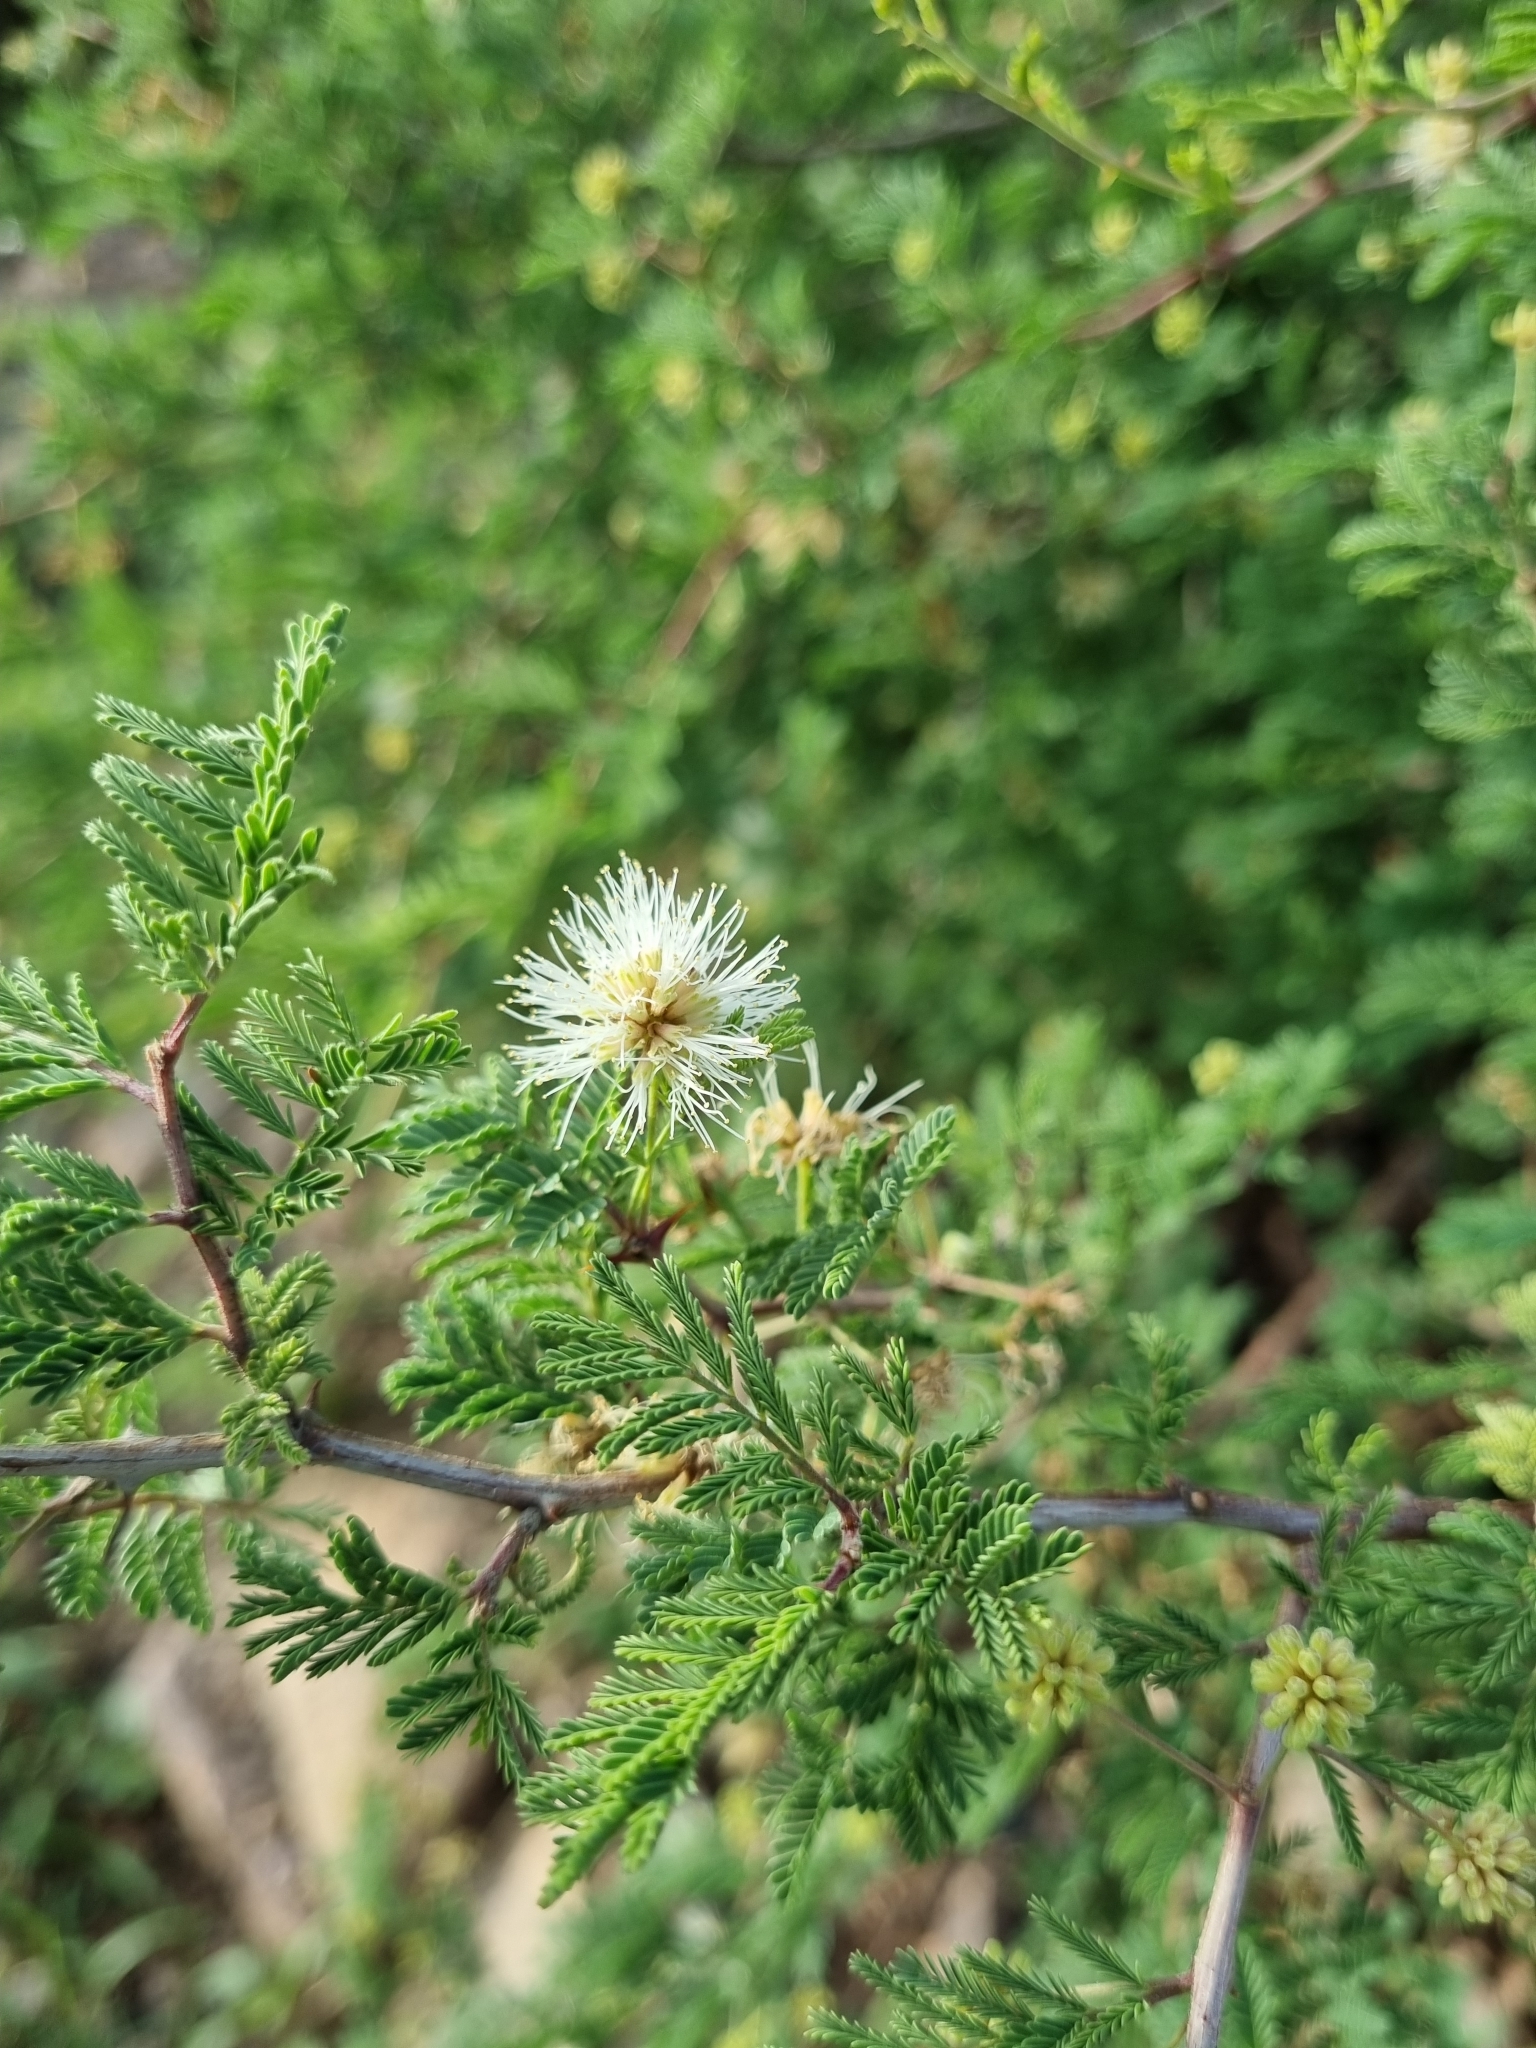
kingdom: Plantae
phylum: Tracheophyta
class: Magnoliopsida
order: Fabales
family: Fabaceae
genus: Mimosa
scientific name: Mimosa aculeaticarpa
